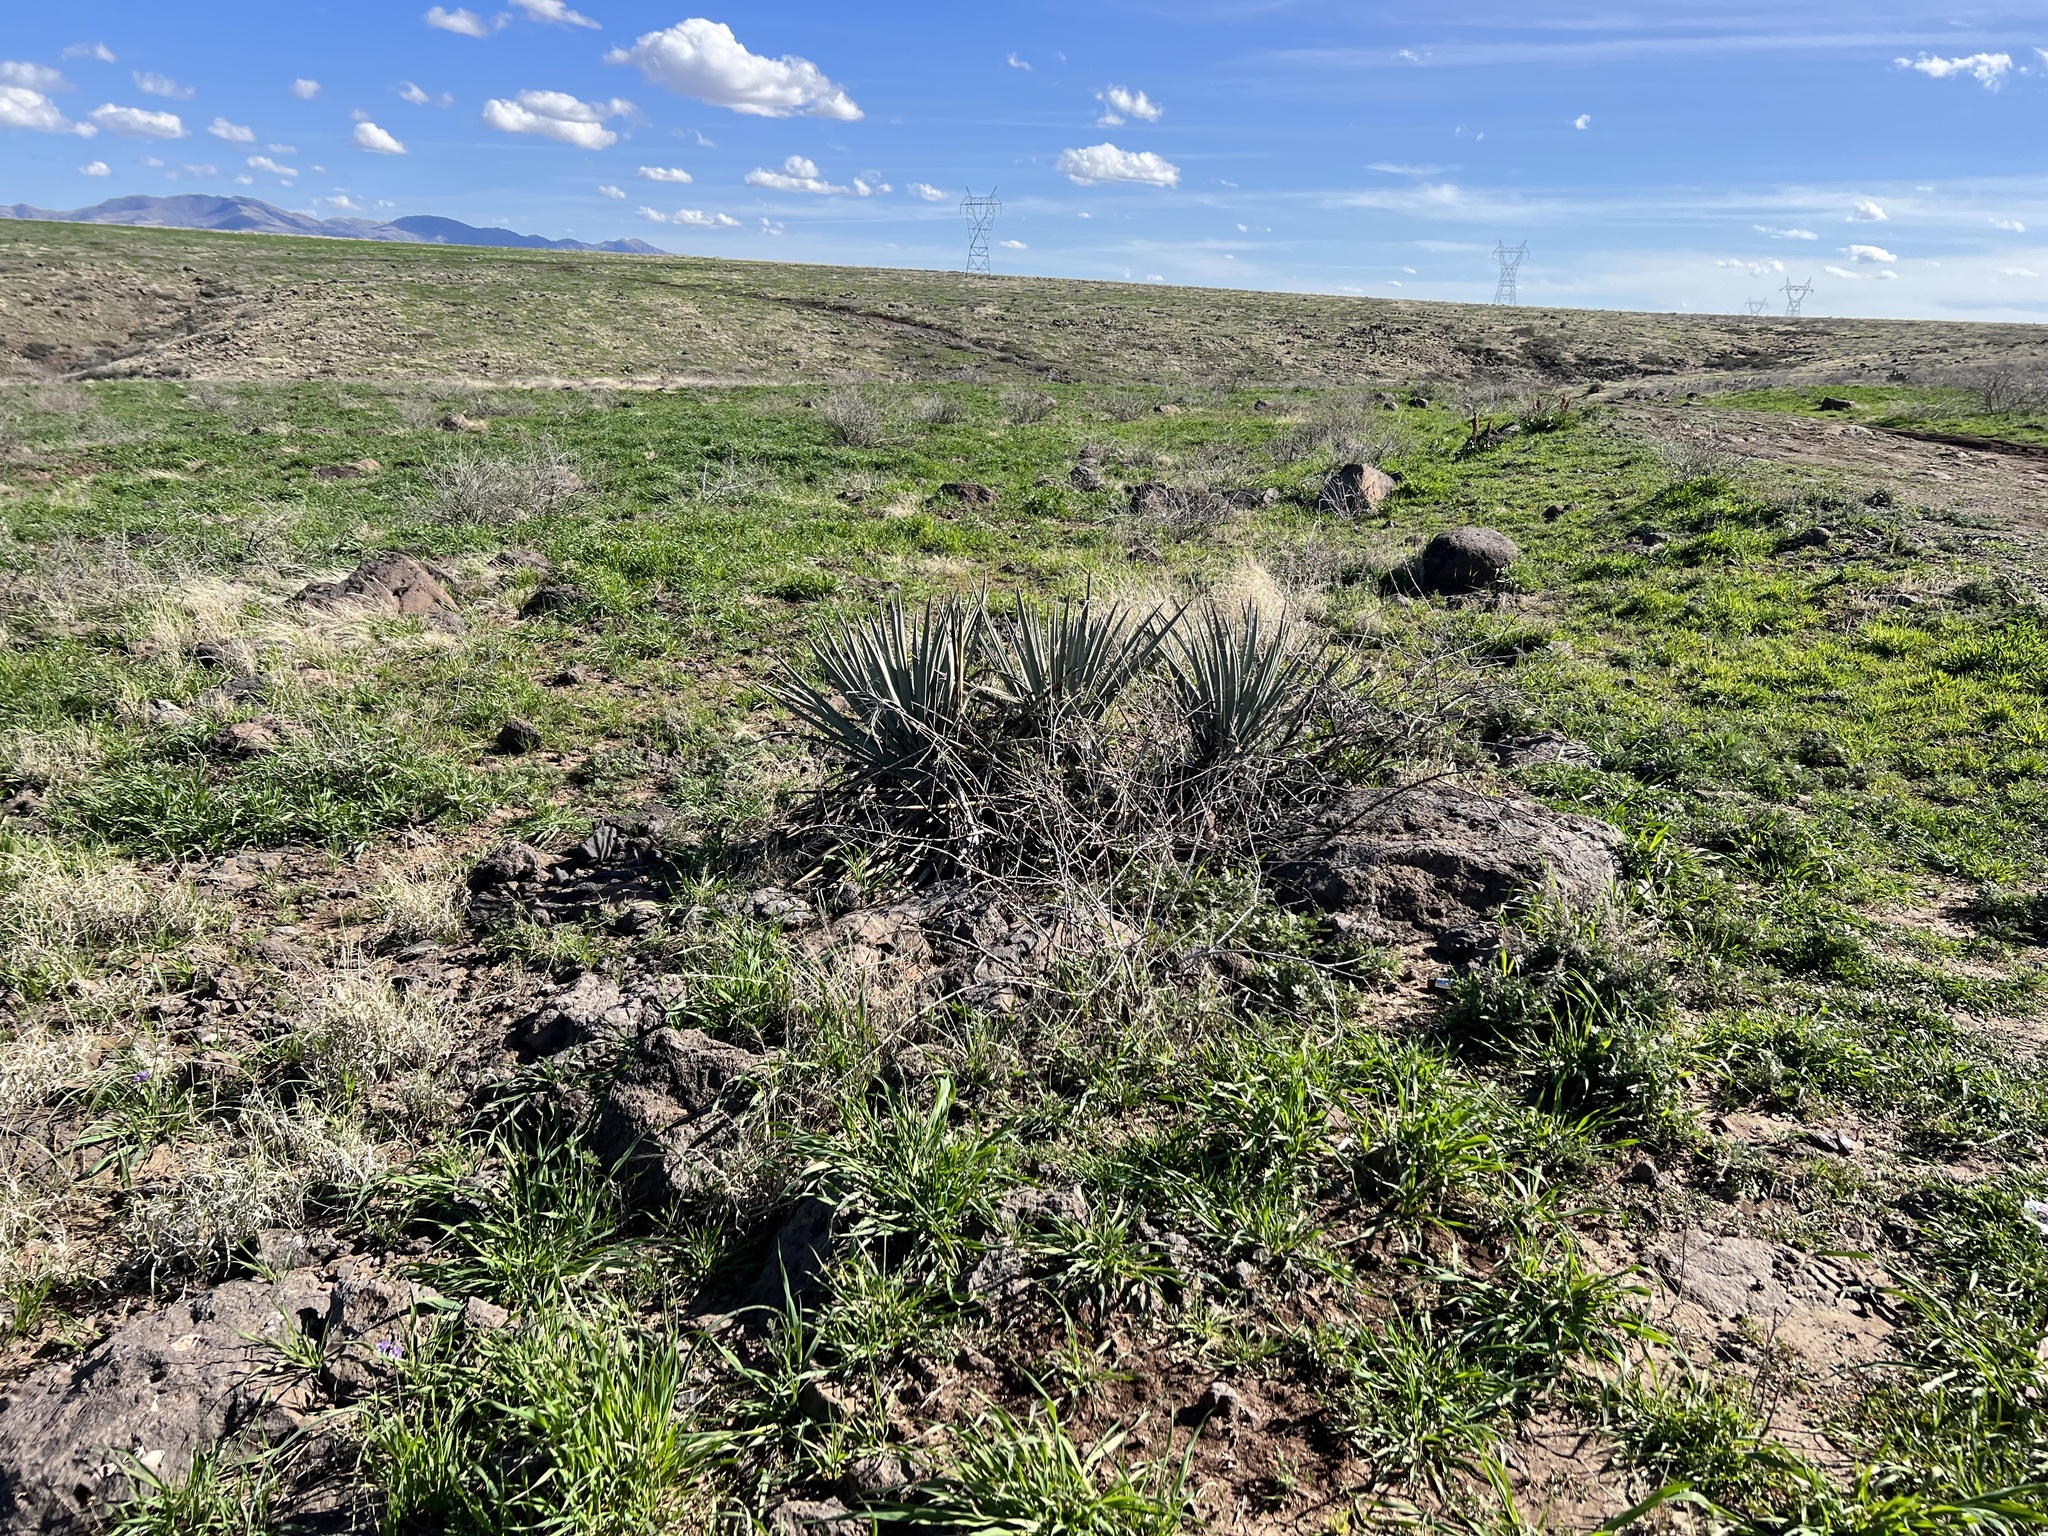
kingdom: Plantae
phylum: Tracheophyta
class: Liliopsida
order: Asparagales
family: Asparagaceae
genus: Yucca
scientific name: Yucca baccata
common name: Banana yucca
